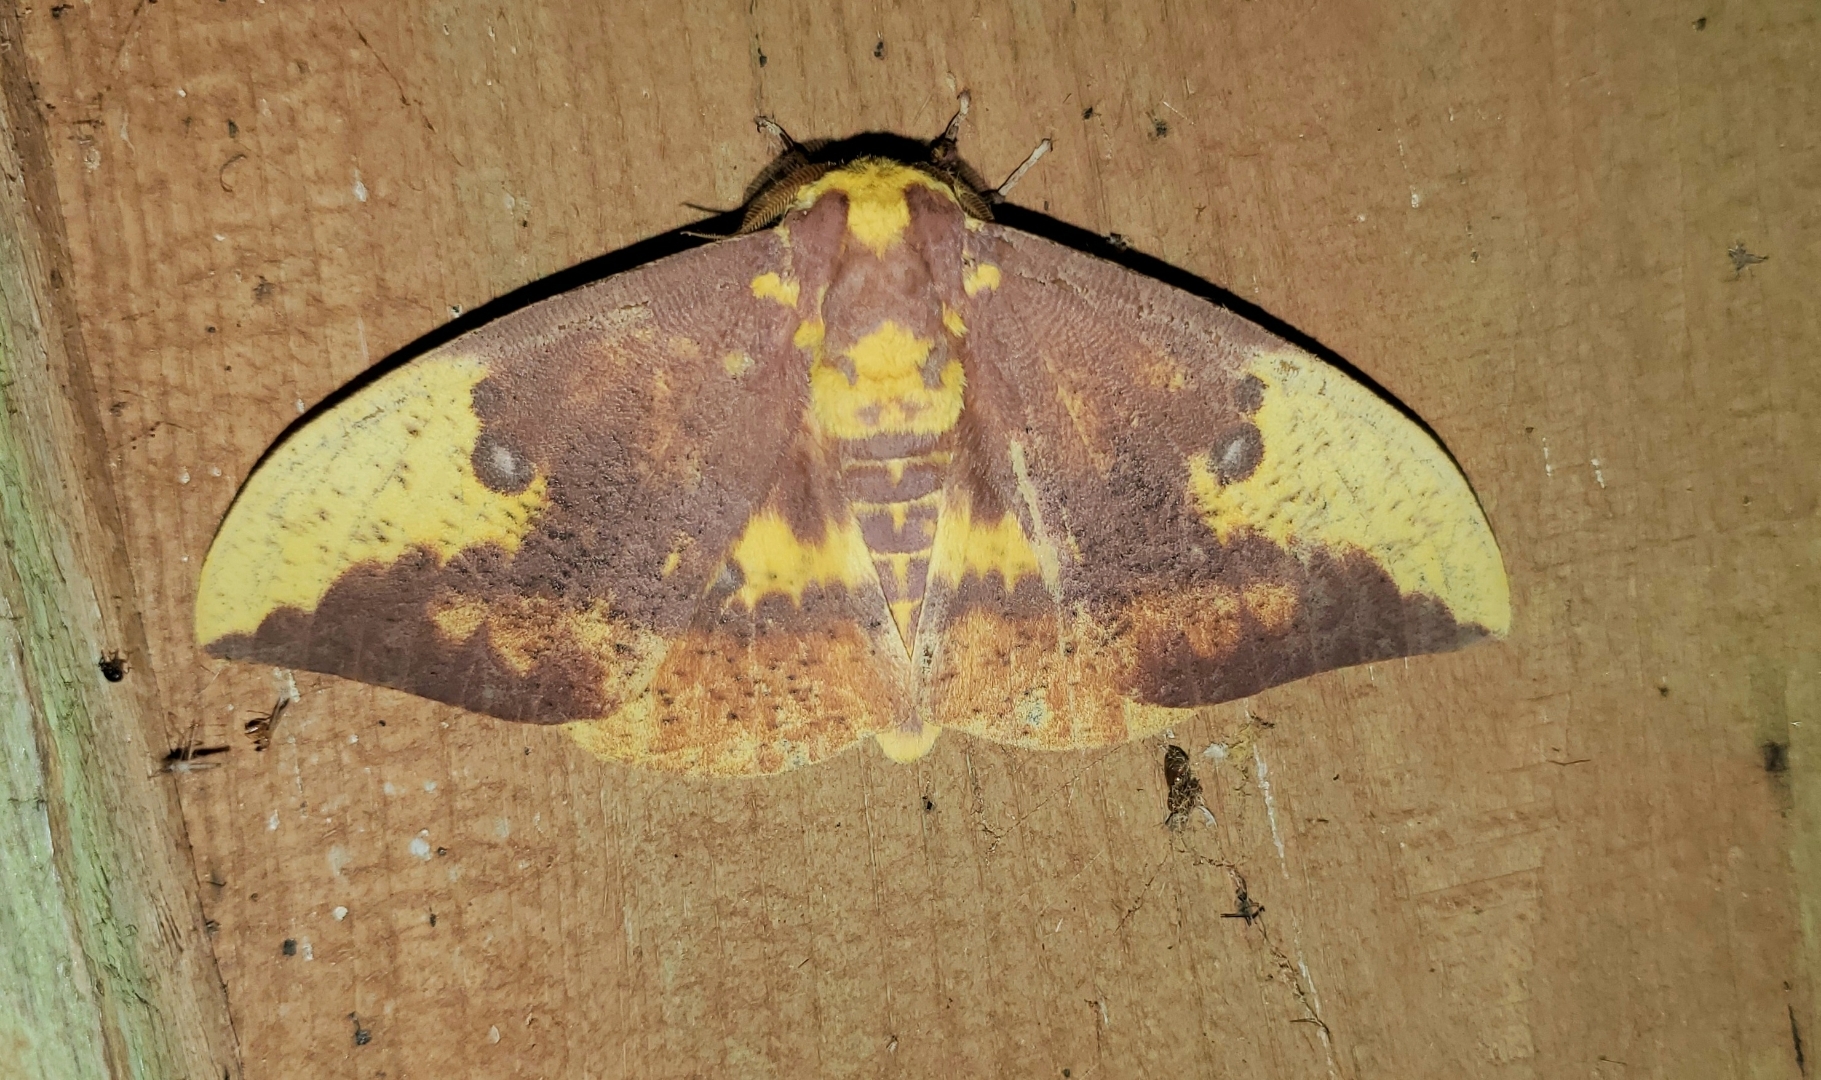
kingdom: Animalia
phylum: Arthropoda
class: Insecta
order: Lepidoptera
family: Saturniidae
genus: Eacles
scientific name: Eacles imperialis
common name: Imperial moth
